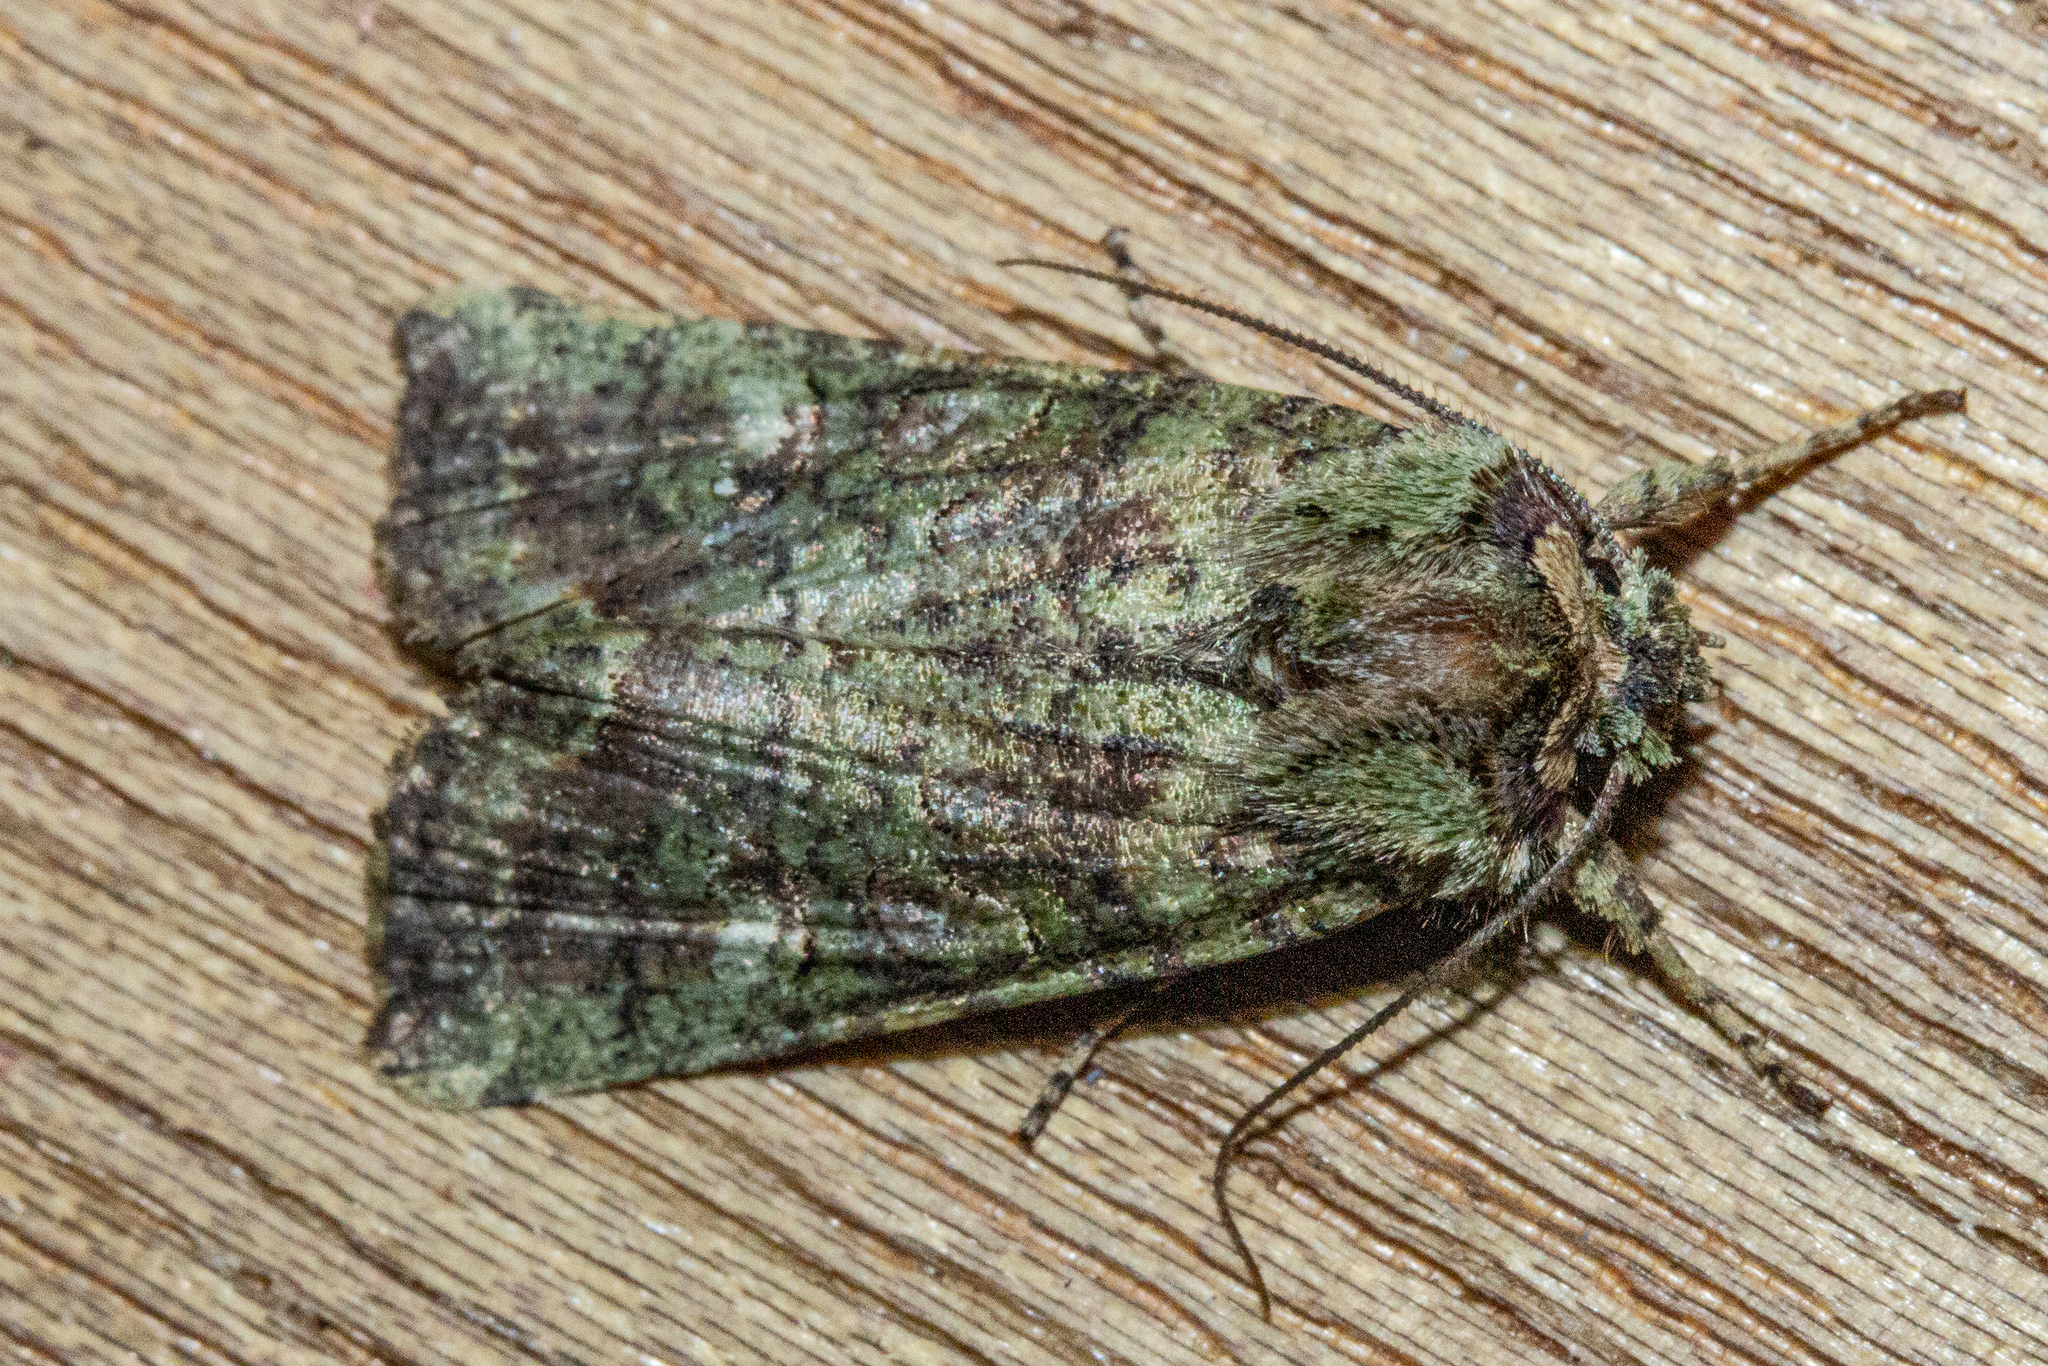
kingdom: Animalia
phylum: Arthropoda
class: Insecta
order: Lepidoptera
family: Noctuidae
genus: Meterana
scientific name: Meterana levis
